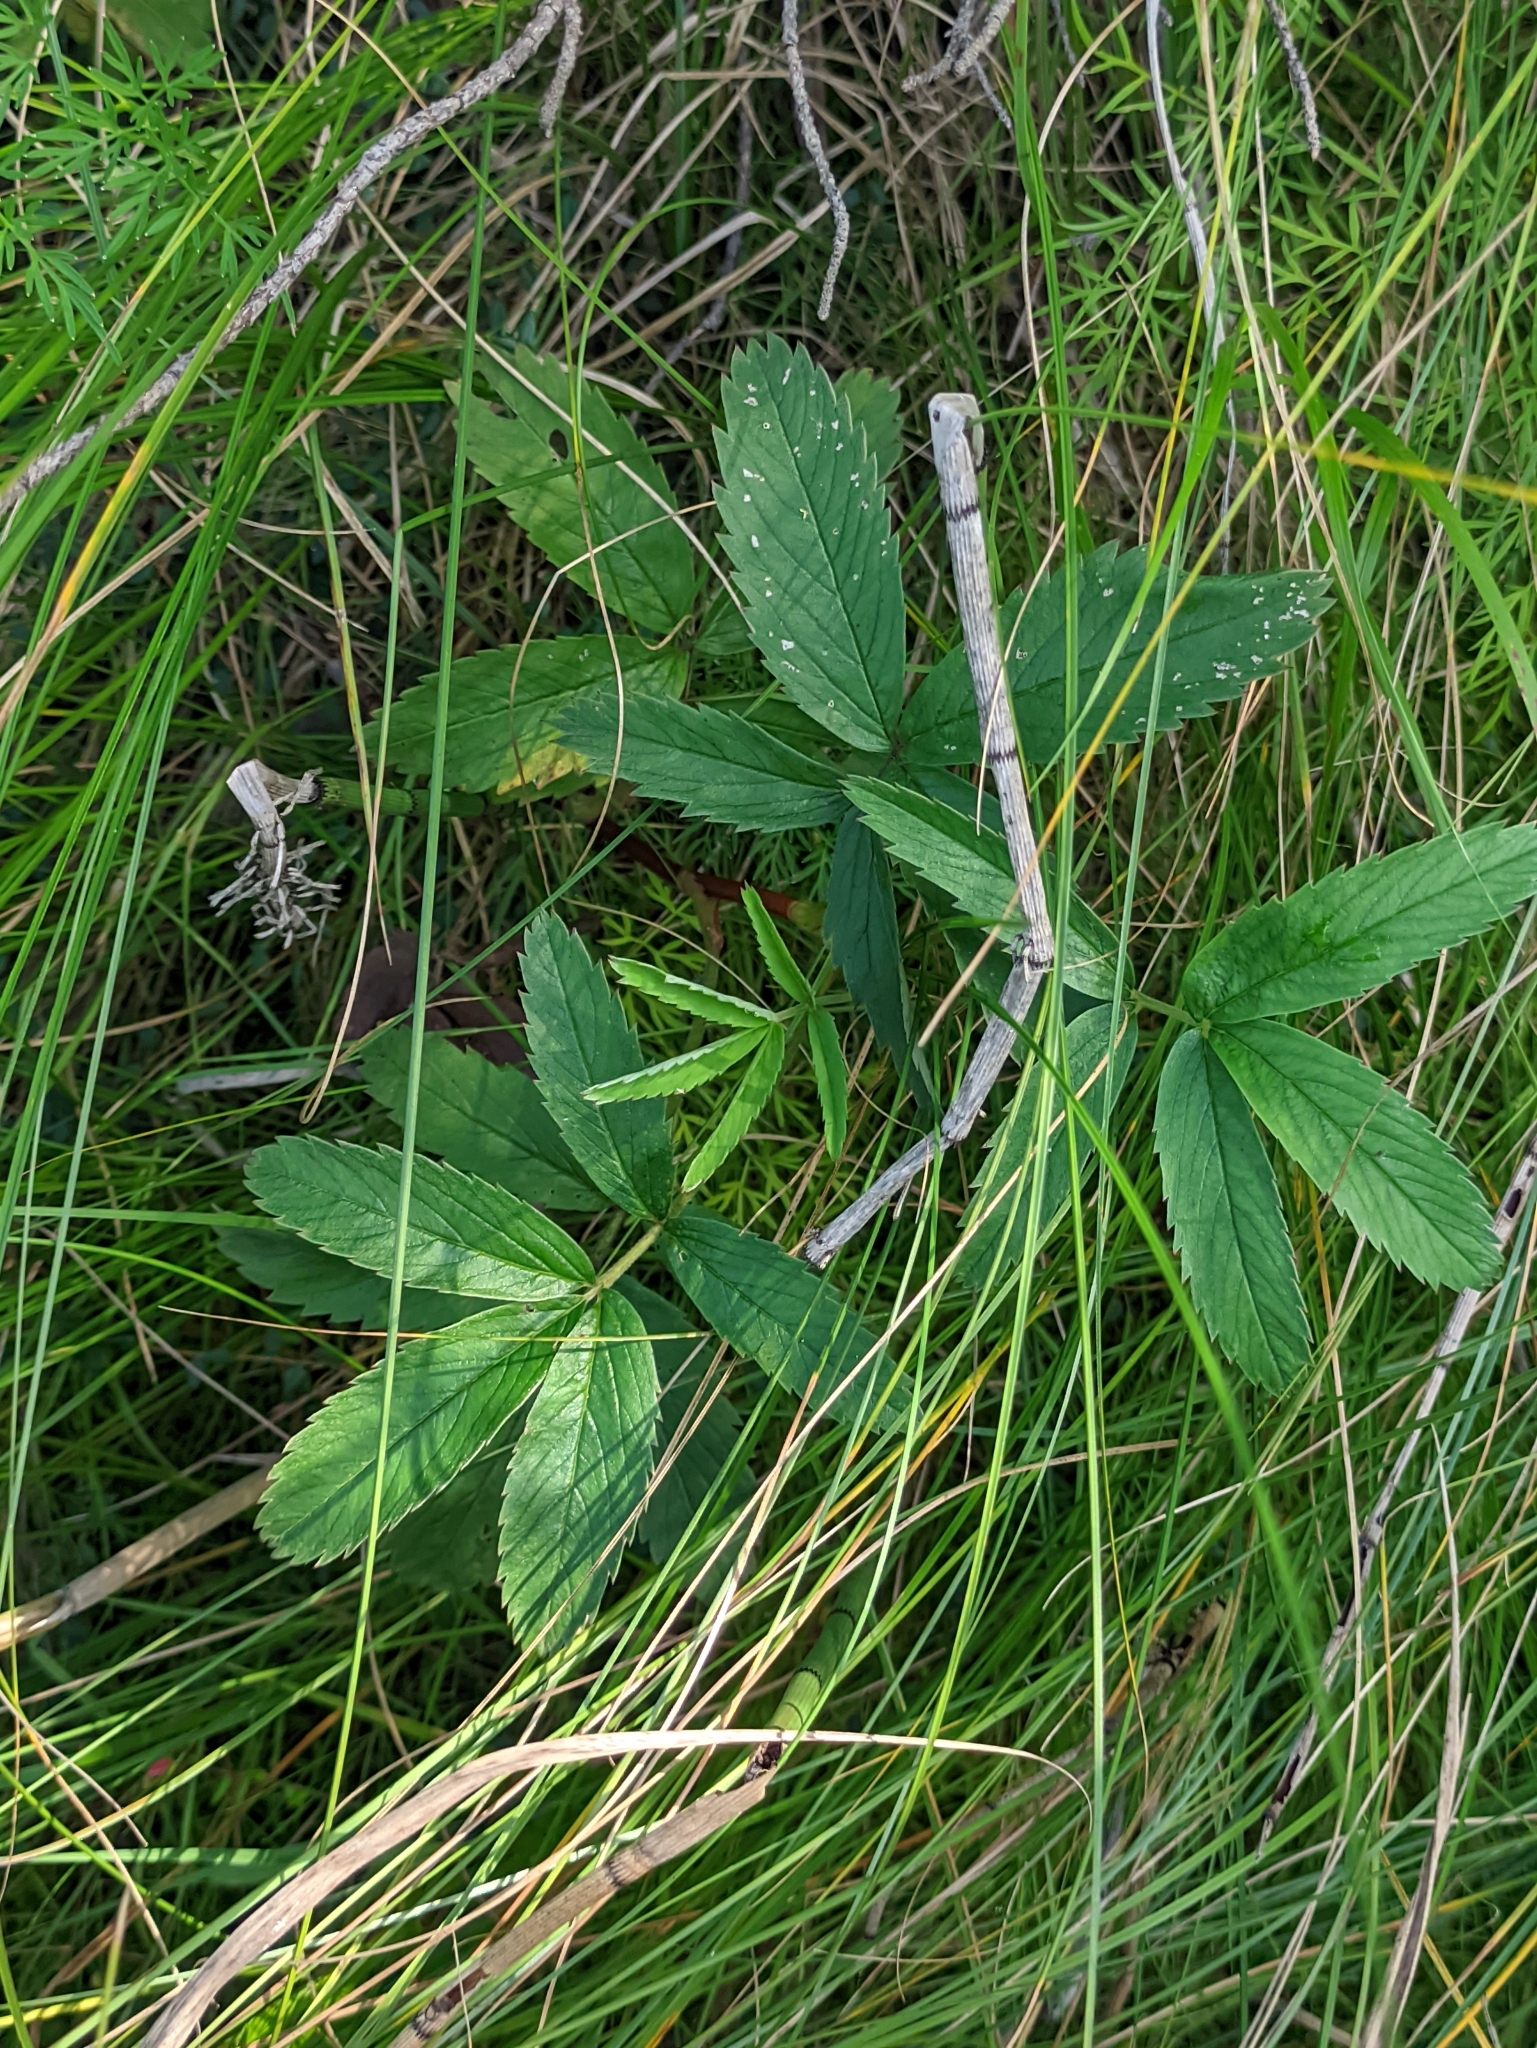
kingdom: Plantae
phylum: Tracheophyta
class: Magnoliopsida
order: Rosales
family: Rosaceae
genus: Comarum
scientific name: Comarum palustre
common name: Marsh cinquefoil
